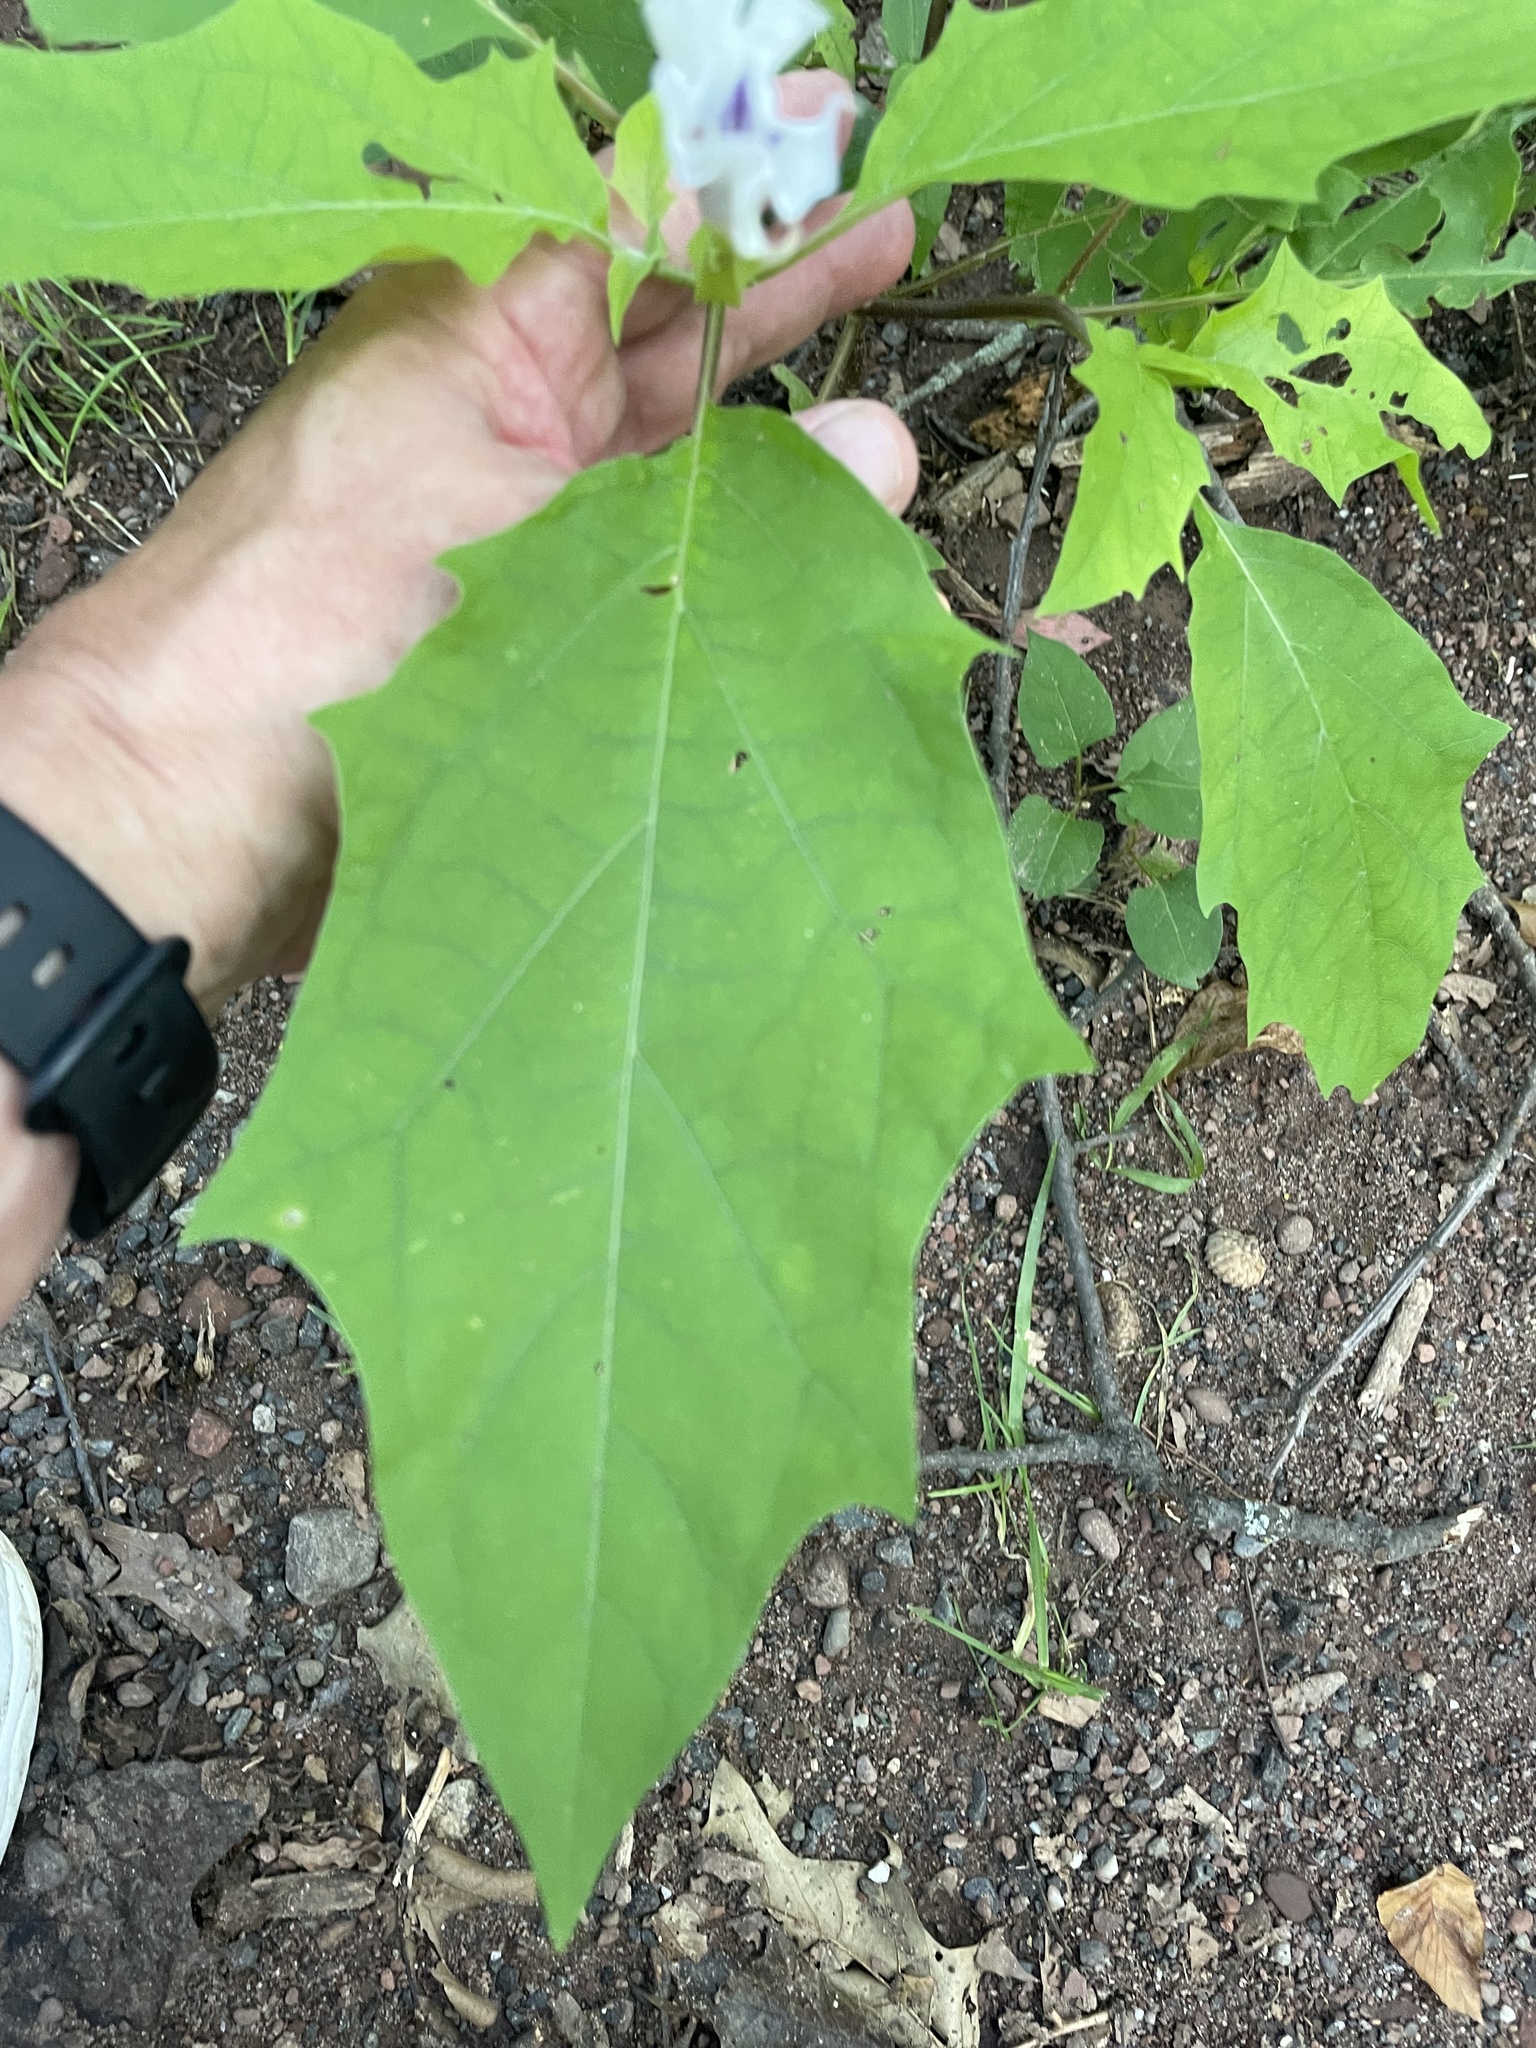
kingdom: Plantae
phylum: Tracheophyta
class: Magnoliopsida
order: Solanales
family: Solanaceae
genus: Datura
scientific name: Datura stramonium
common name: Thorn-apple
